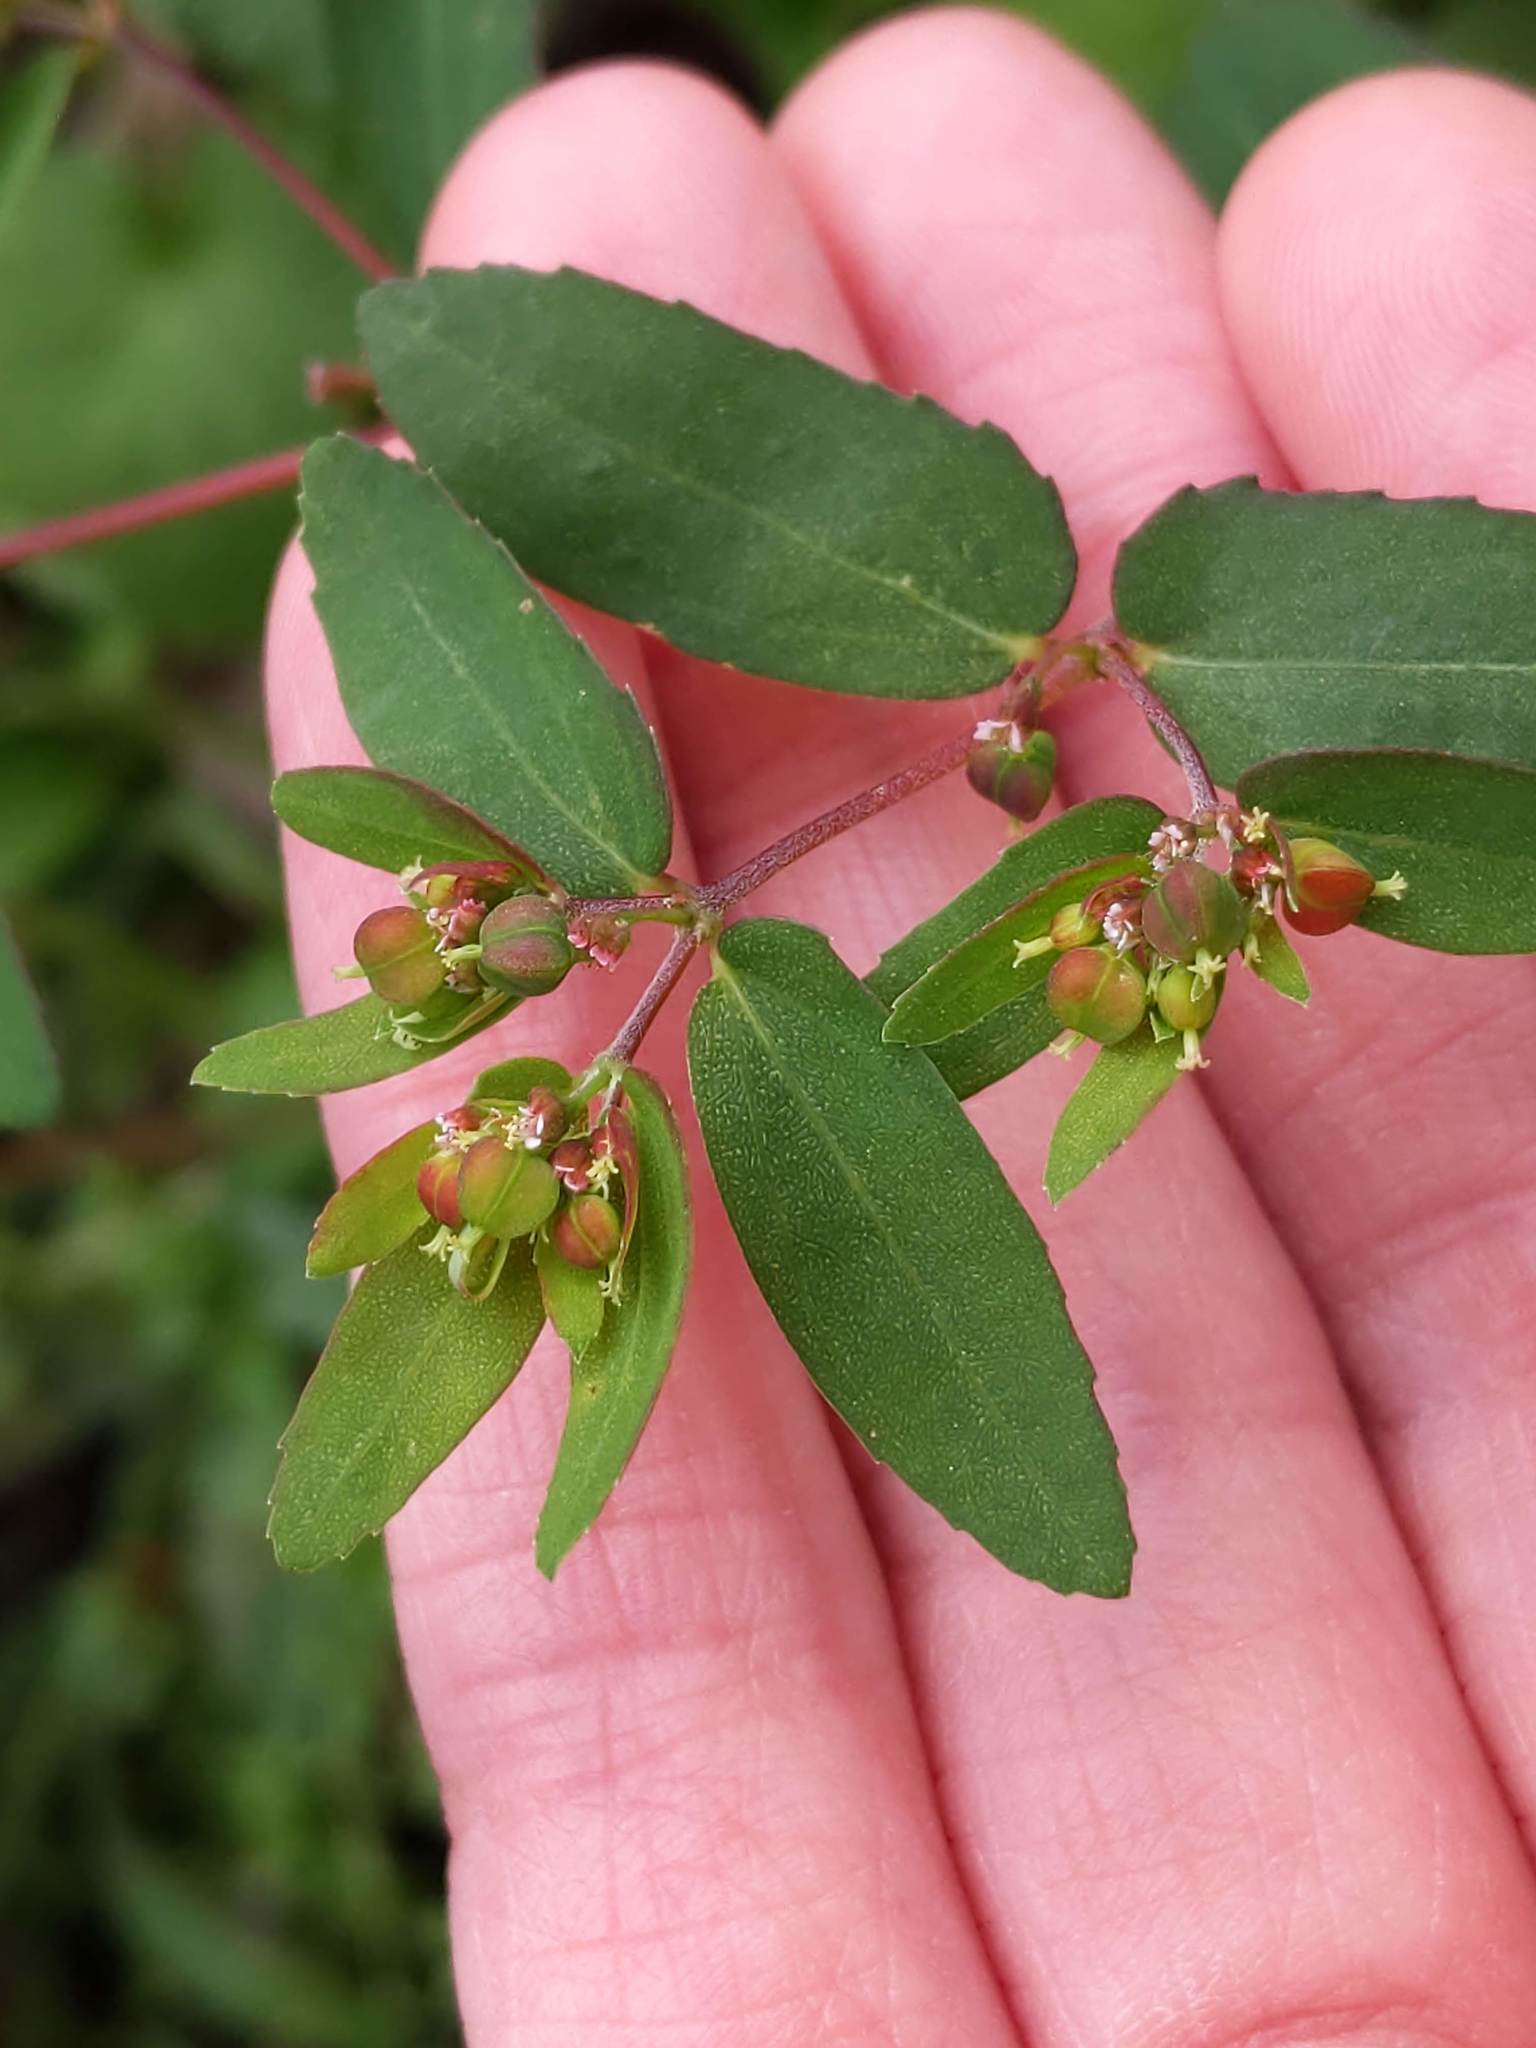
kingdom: Plantae
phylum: Tracheophyta
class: Magnoliopsida
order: Malpighiales
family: Euphorbiaceae
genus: Euphorbia
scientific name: Euphorbia nutans
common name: Eyebane
